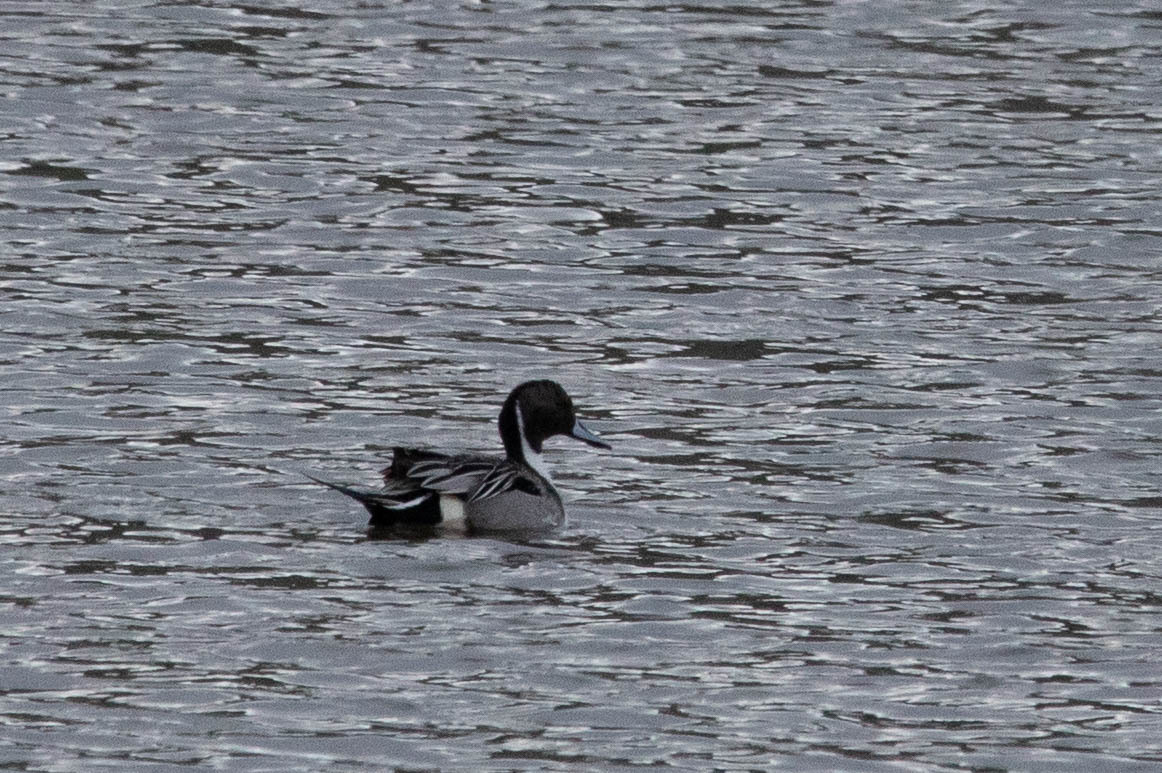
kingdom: Animalia
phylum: Chordata
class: Aves
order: Anseriformes
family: Anatidae
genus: Anas
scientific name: Anas acuta
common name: Northern pintail
